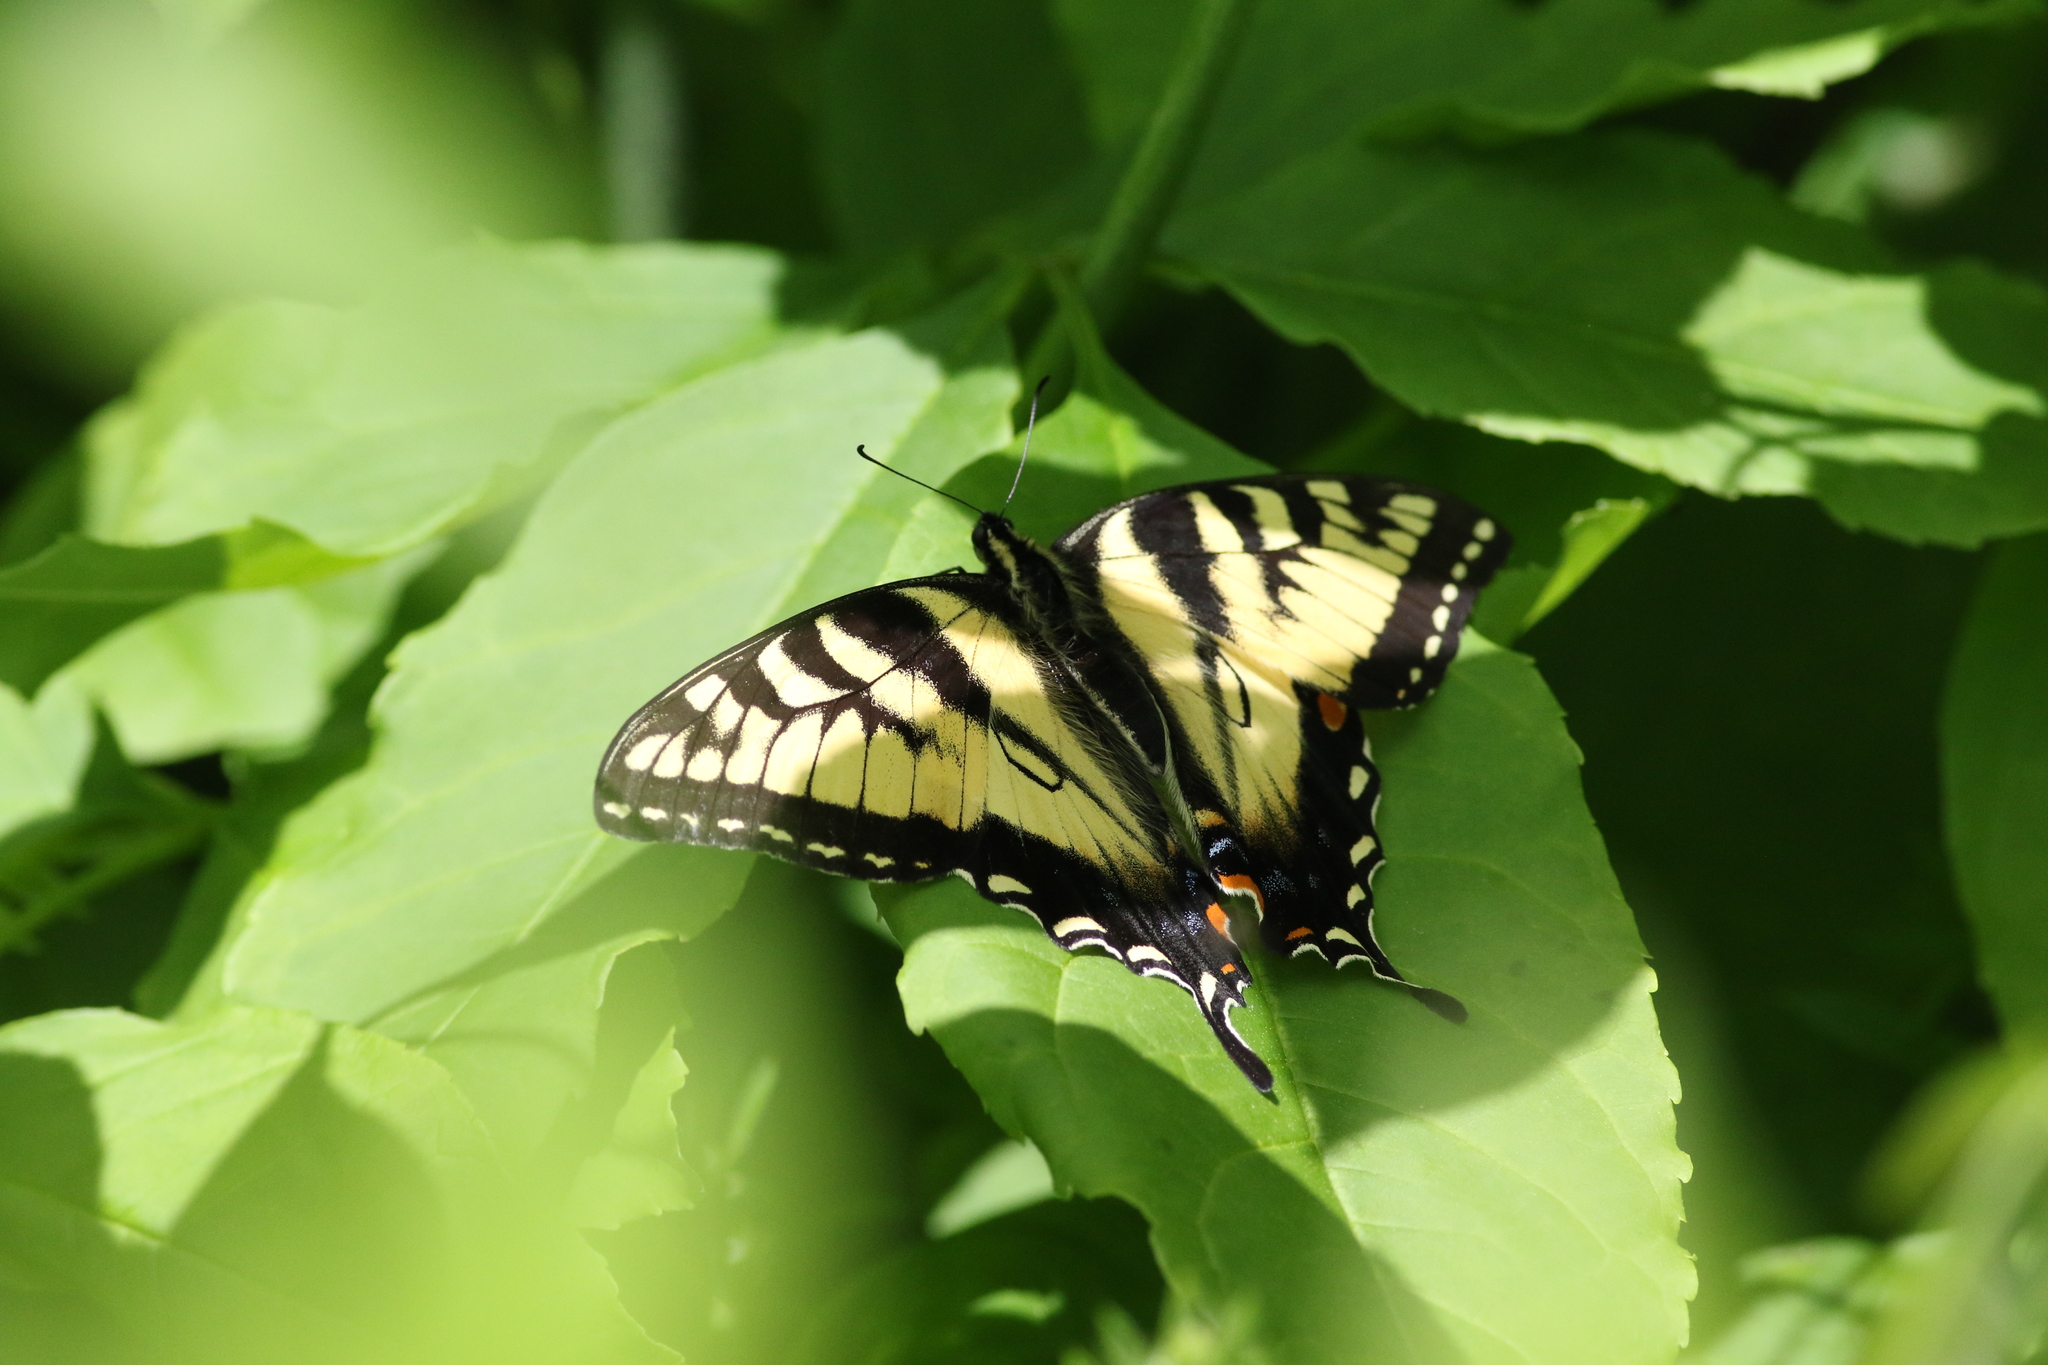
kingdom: Animalia
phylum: Arthropoda
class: Insecta
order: Lepidoptera
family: Papilionidae
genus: Pterourus
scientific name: Pterourus
